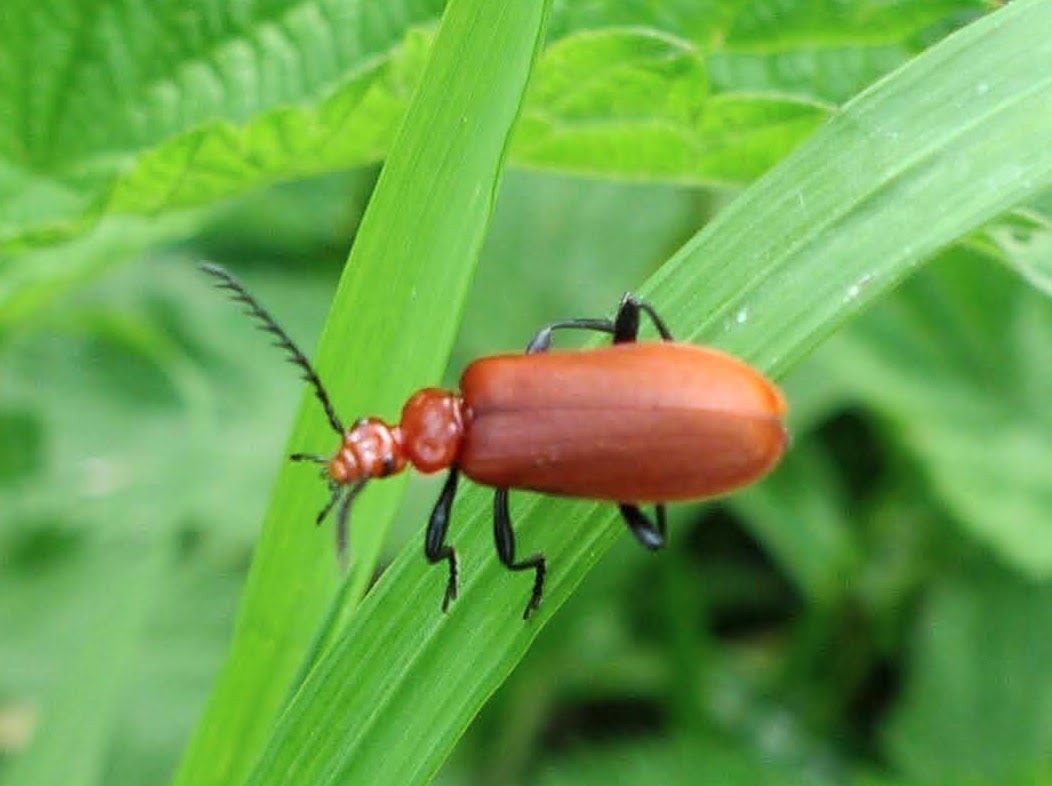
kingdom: Animalia
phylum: Arthropoda
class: Insecta
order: Coleoptera
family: Pyrochroidae
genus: Pyrochroa
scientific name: Pyrochroa serraticornis
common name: Red-headed cardinal beetle
